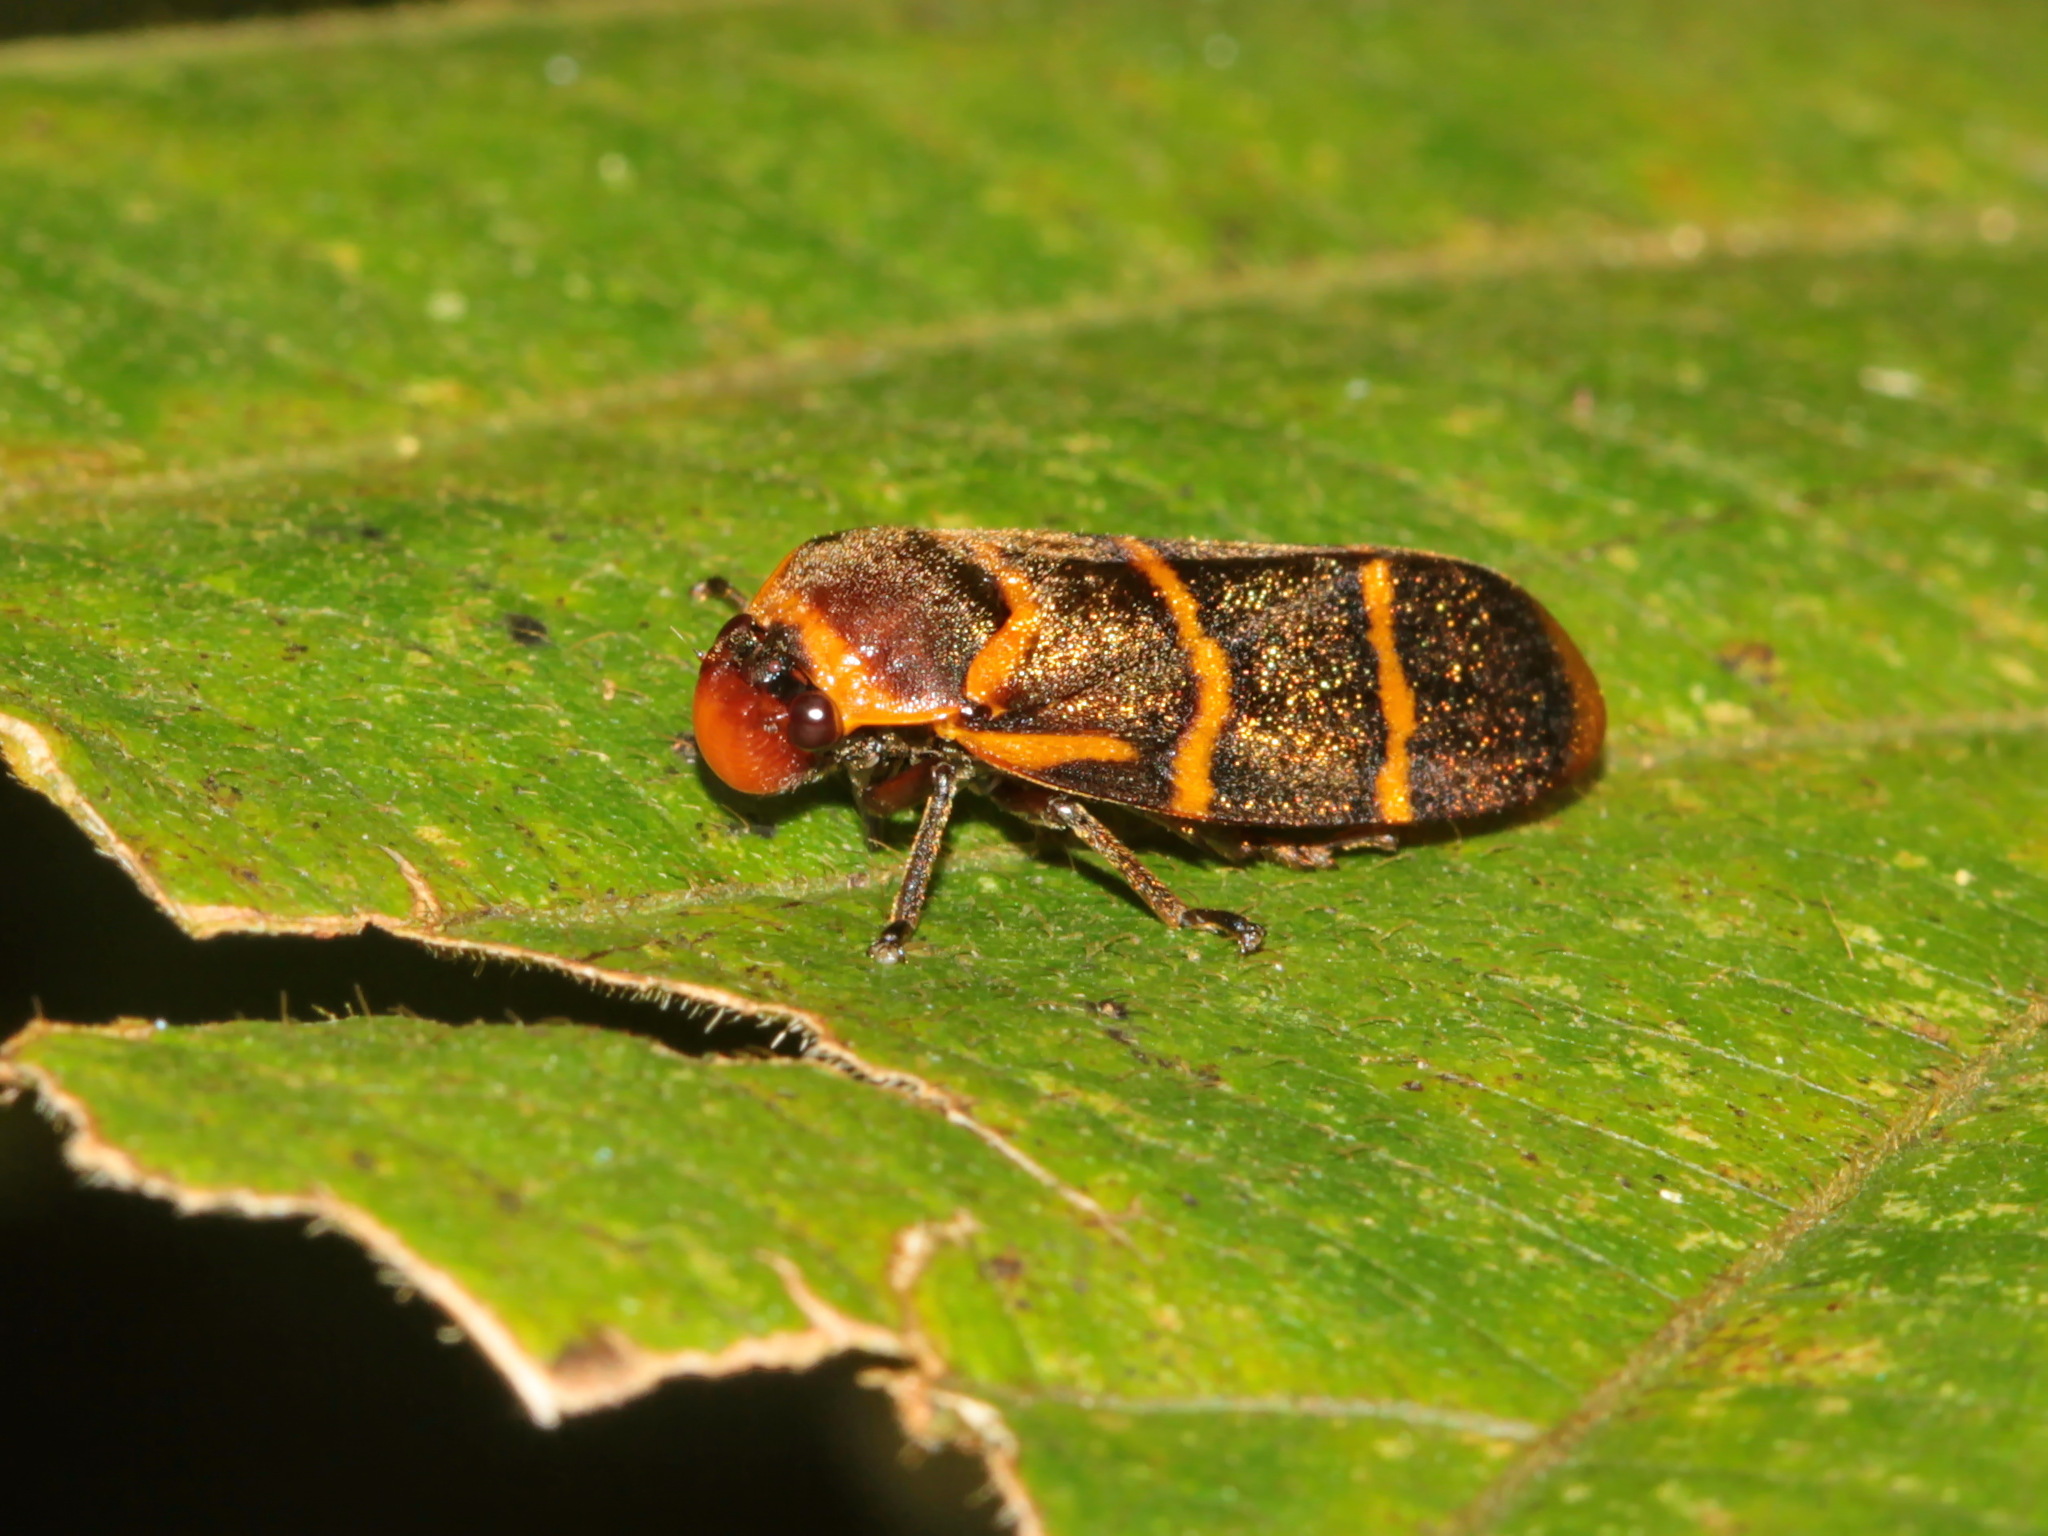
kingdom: Animalia
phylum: Arthropoda
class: Insecta
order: Hemiptera
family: Cercopidae
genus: Phymatostetha
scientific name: Phymatostetha stalii
